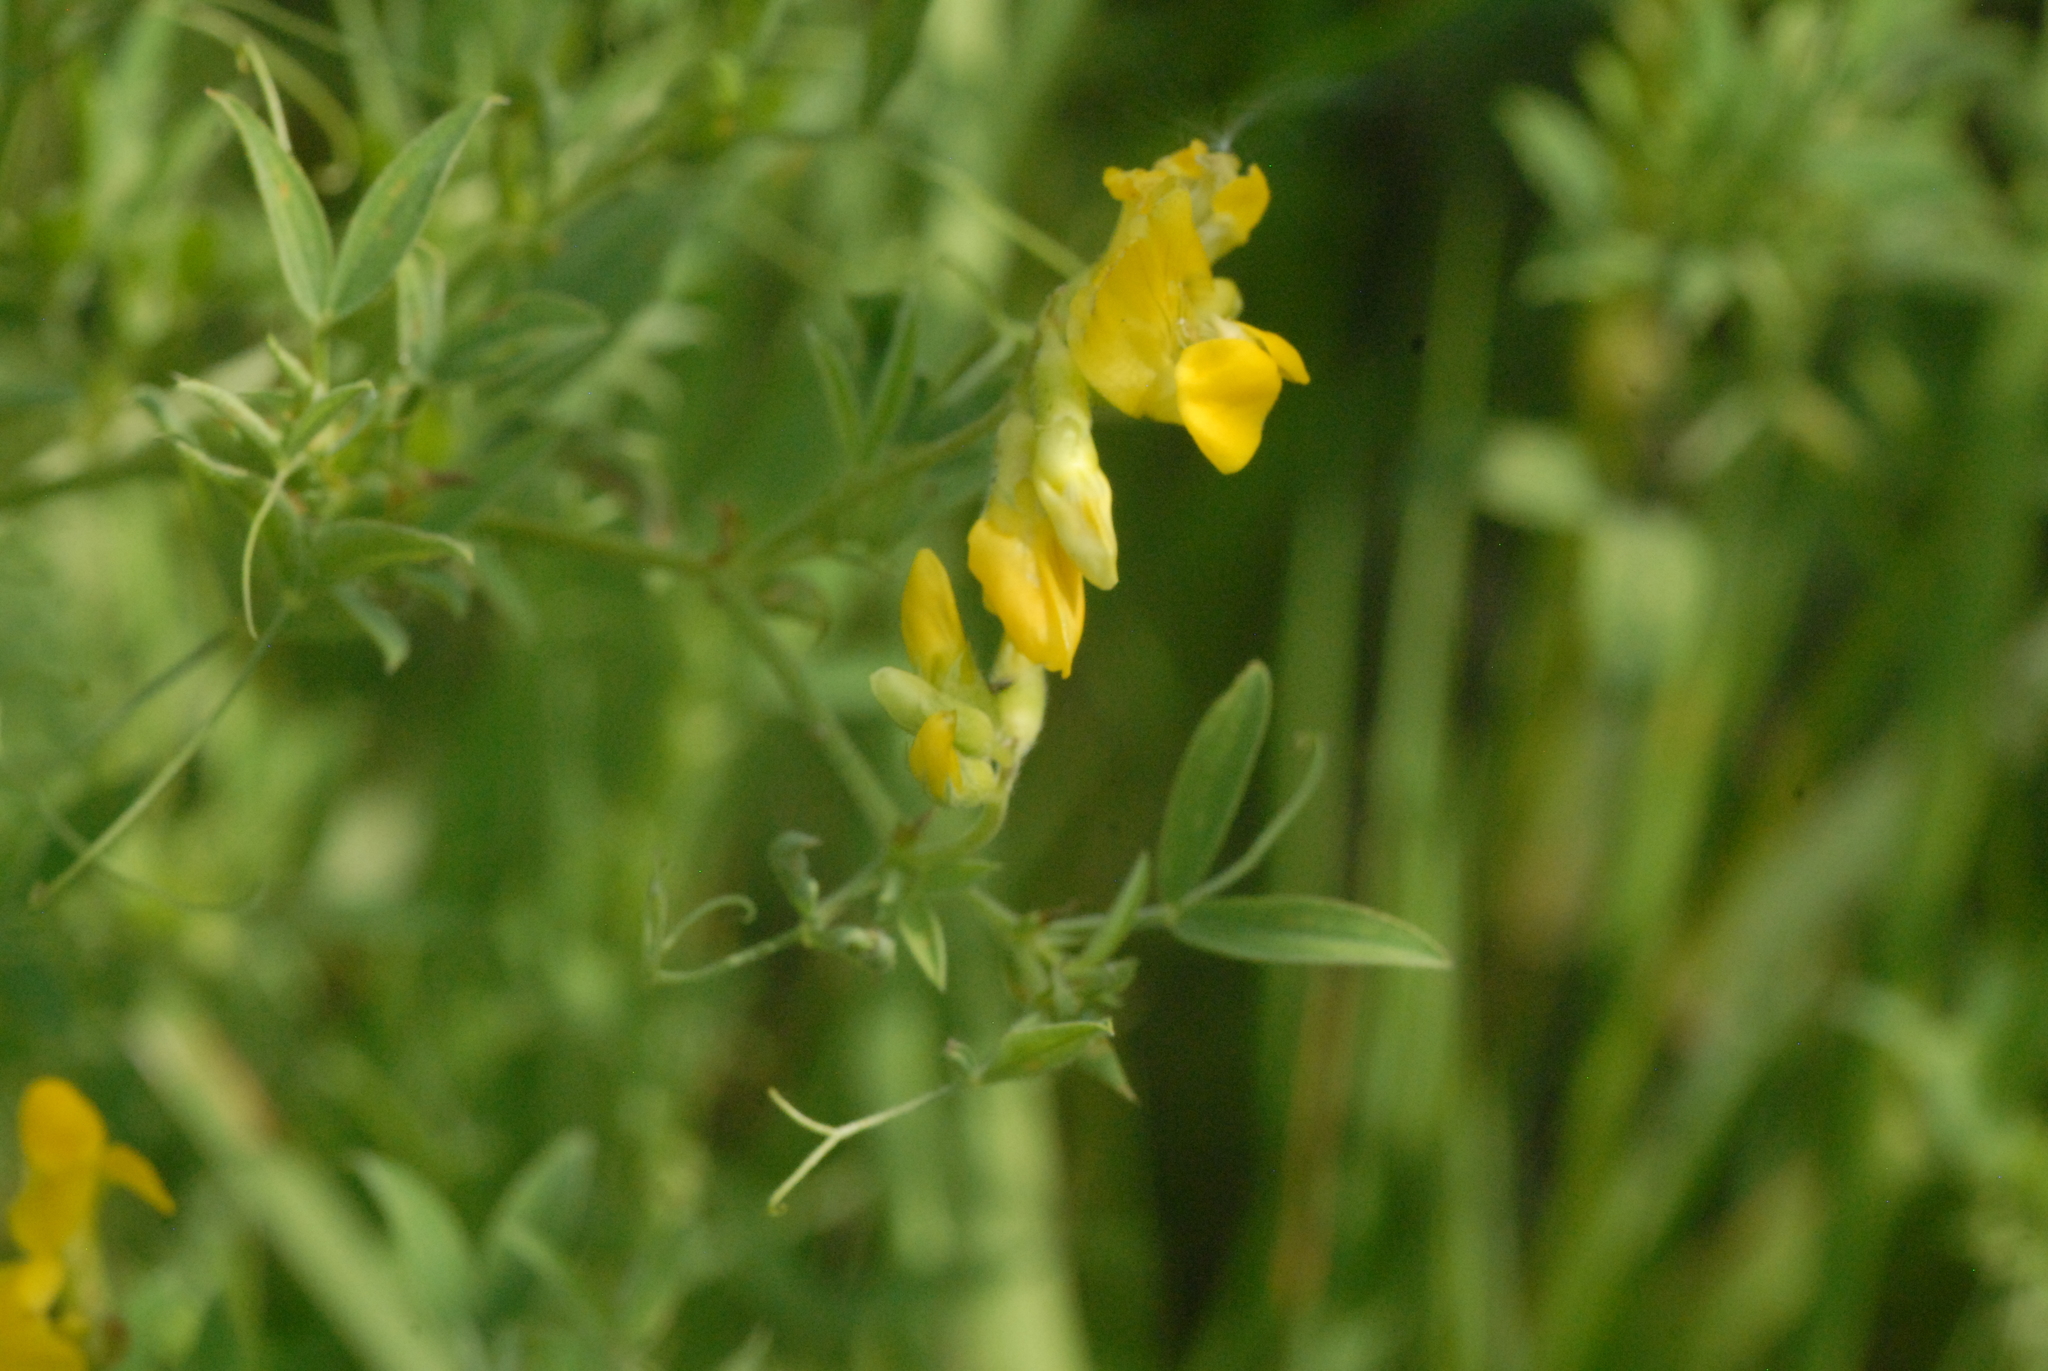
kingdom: Plantae
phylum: Tracheophyta
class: Magnoliopsida
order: Fabales
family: Fabaceae
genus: Lathyrus
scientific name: Lathyrus pratensis
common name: Meadow vetchling
